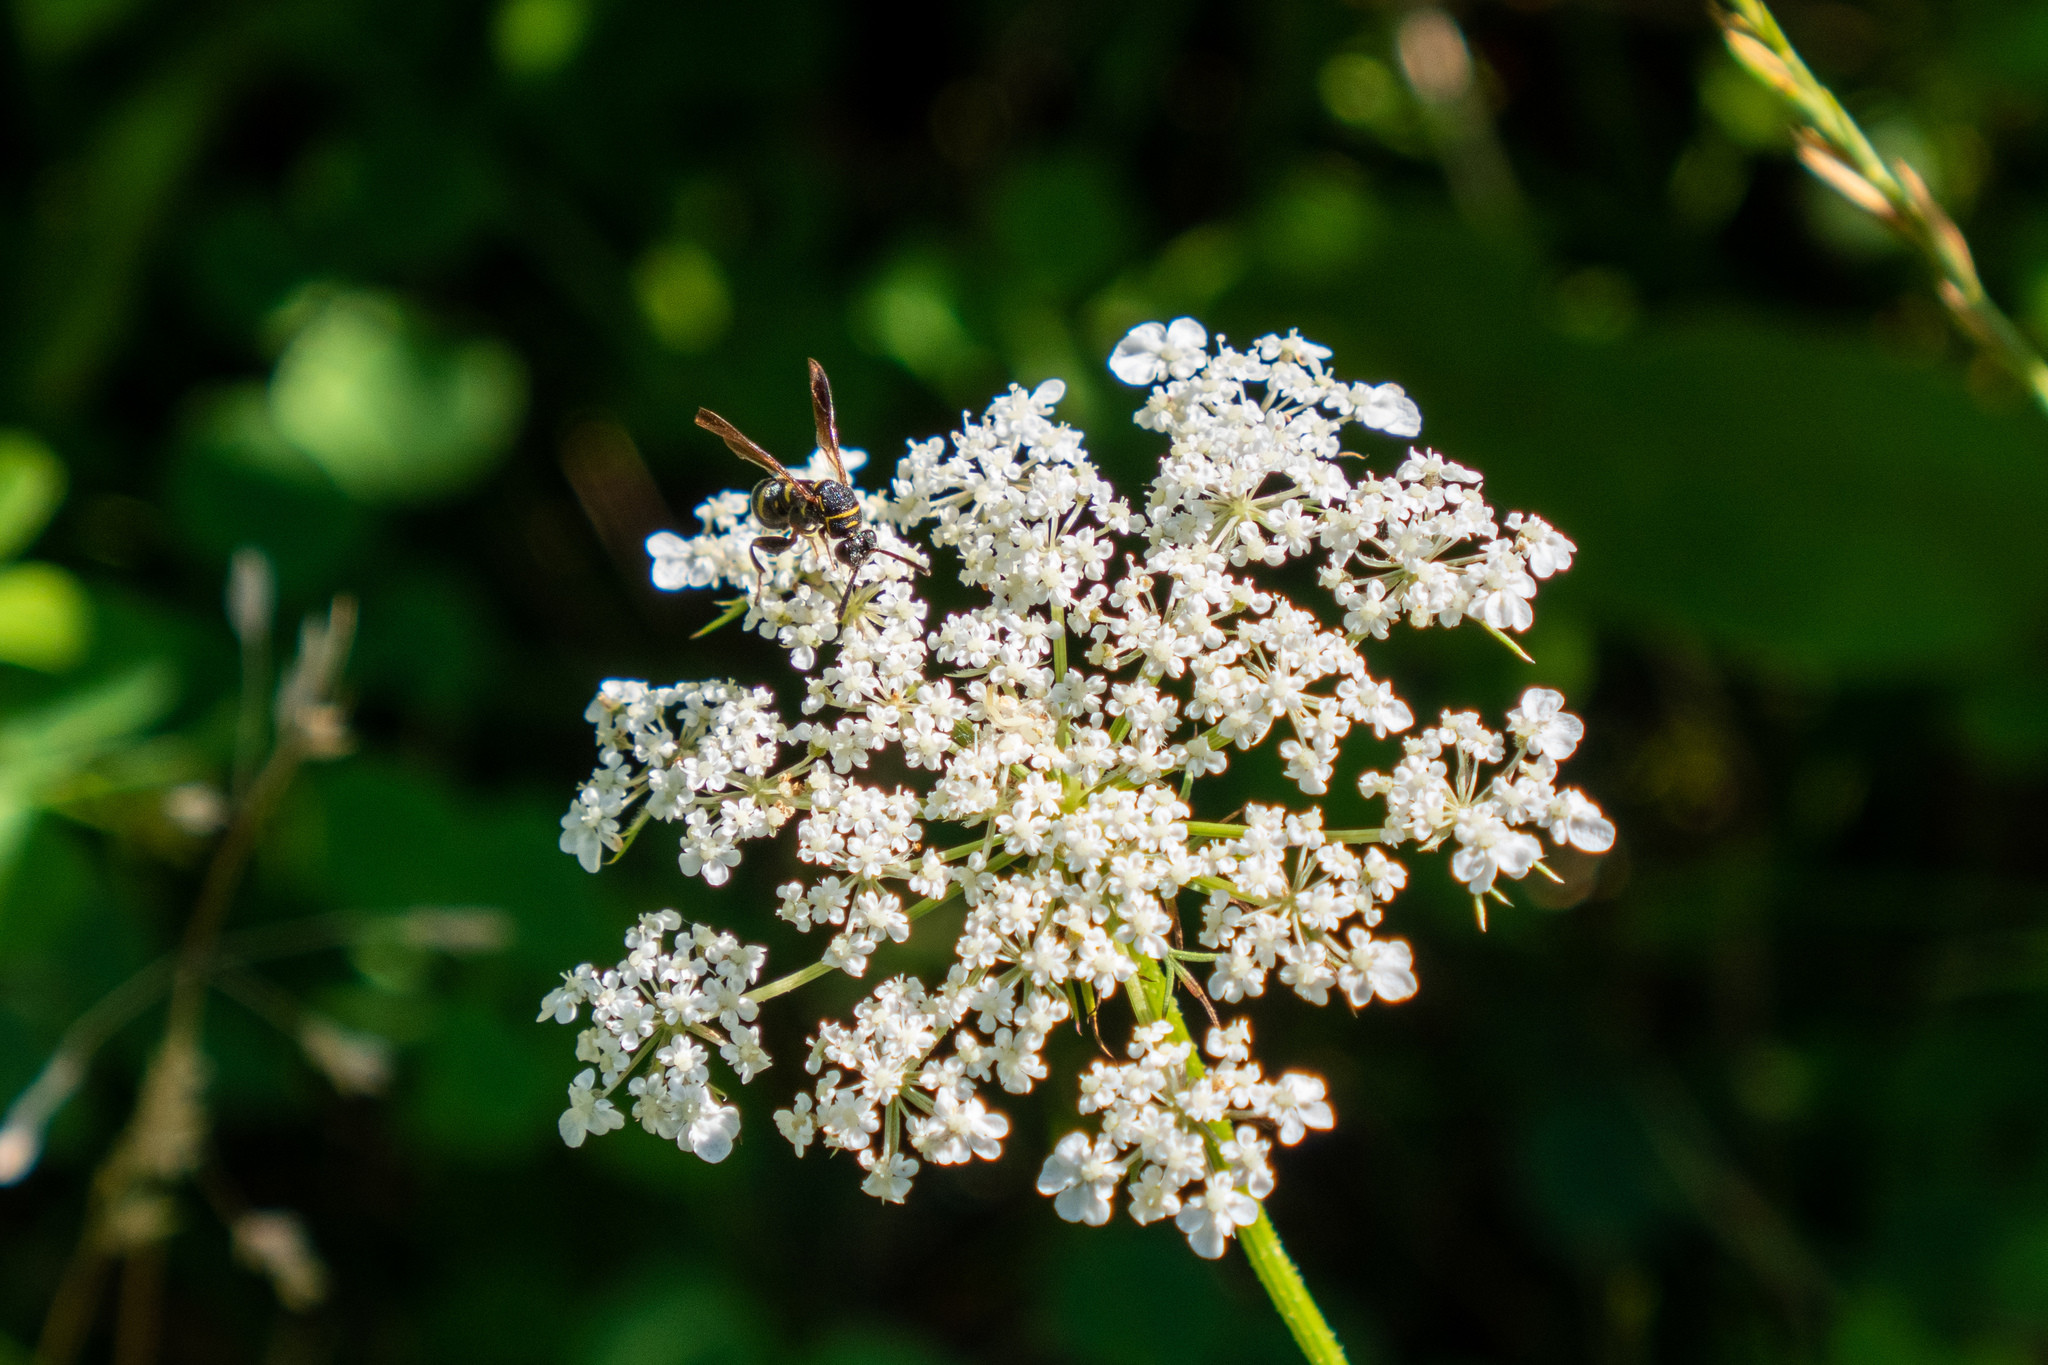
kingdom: Animalia
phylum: Arthropoda
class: Insecta
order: Hymenoptera
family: Leucospidae
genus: Leucospis
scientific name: Leucospis affinis
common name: Wasp
